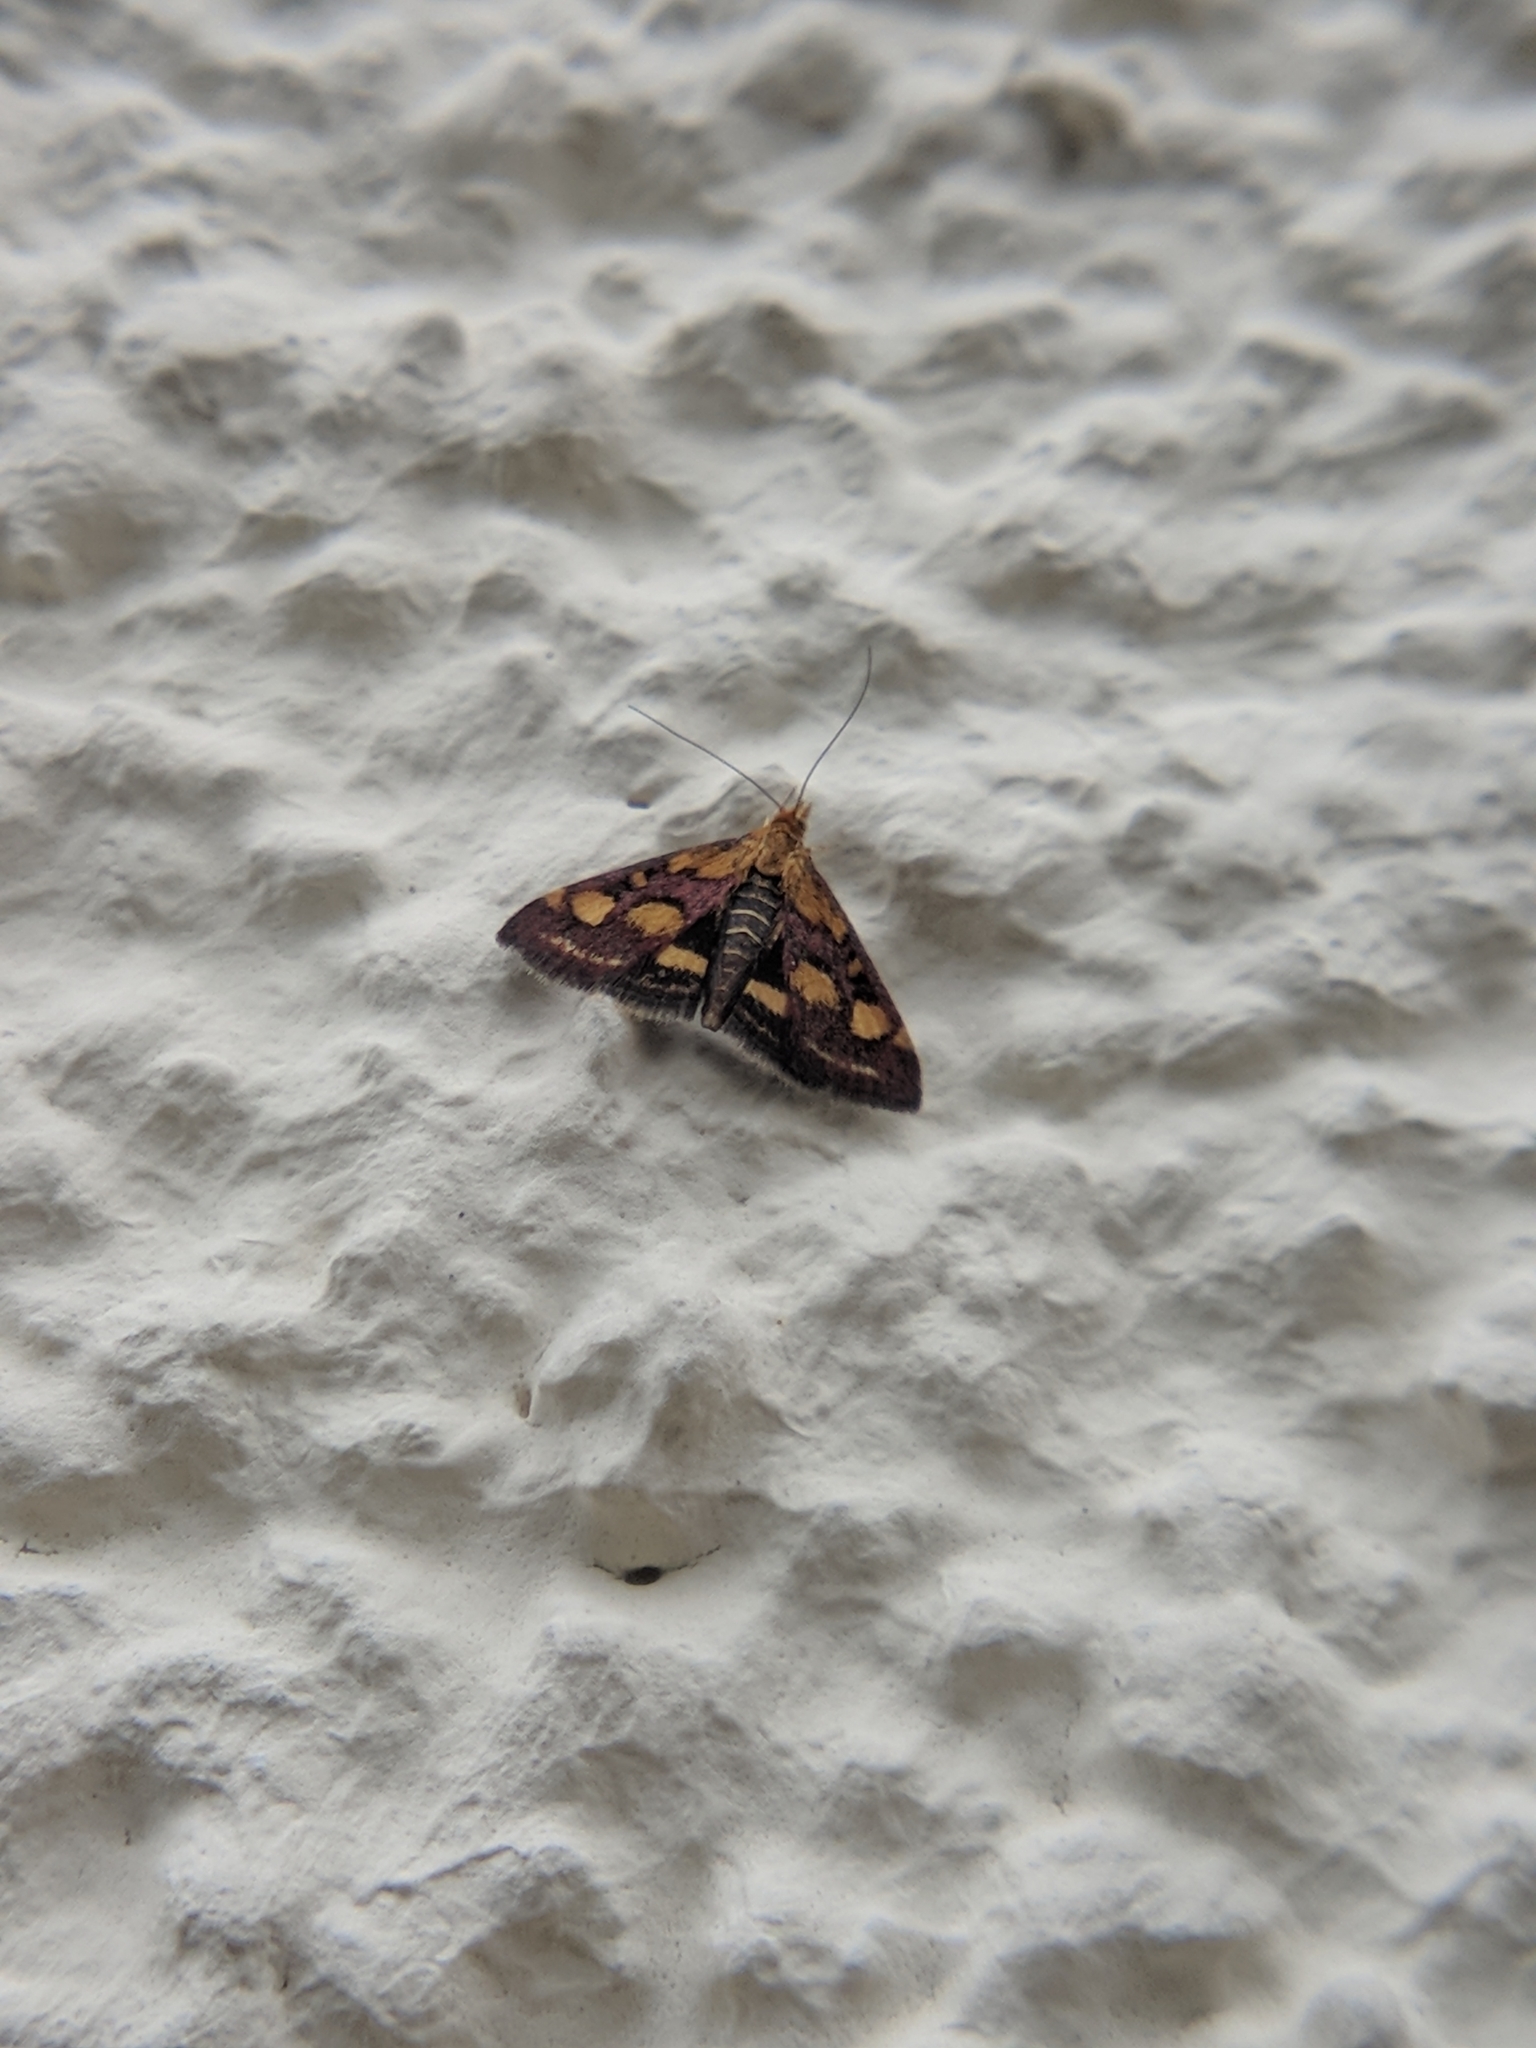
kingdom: Animalia
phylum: Arthropoda
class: Insecta
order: Lepidoptera
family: Crambidae
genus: Pyrausta
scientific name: Pyrausta purpuralis
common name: Common purple & gold
